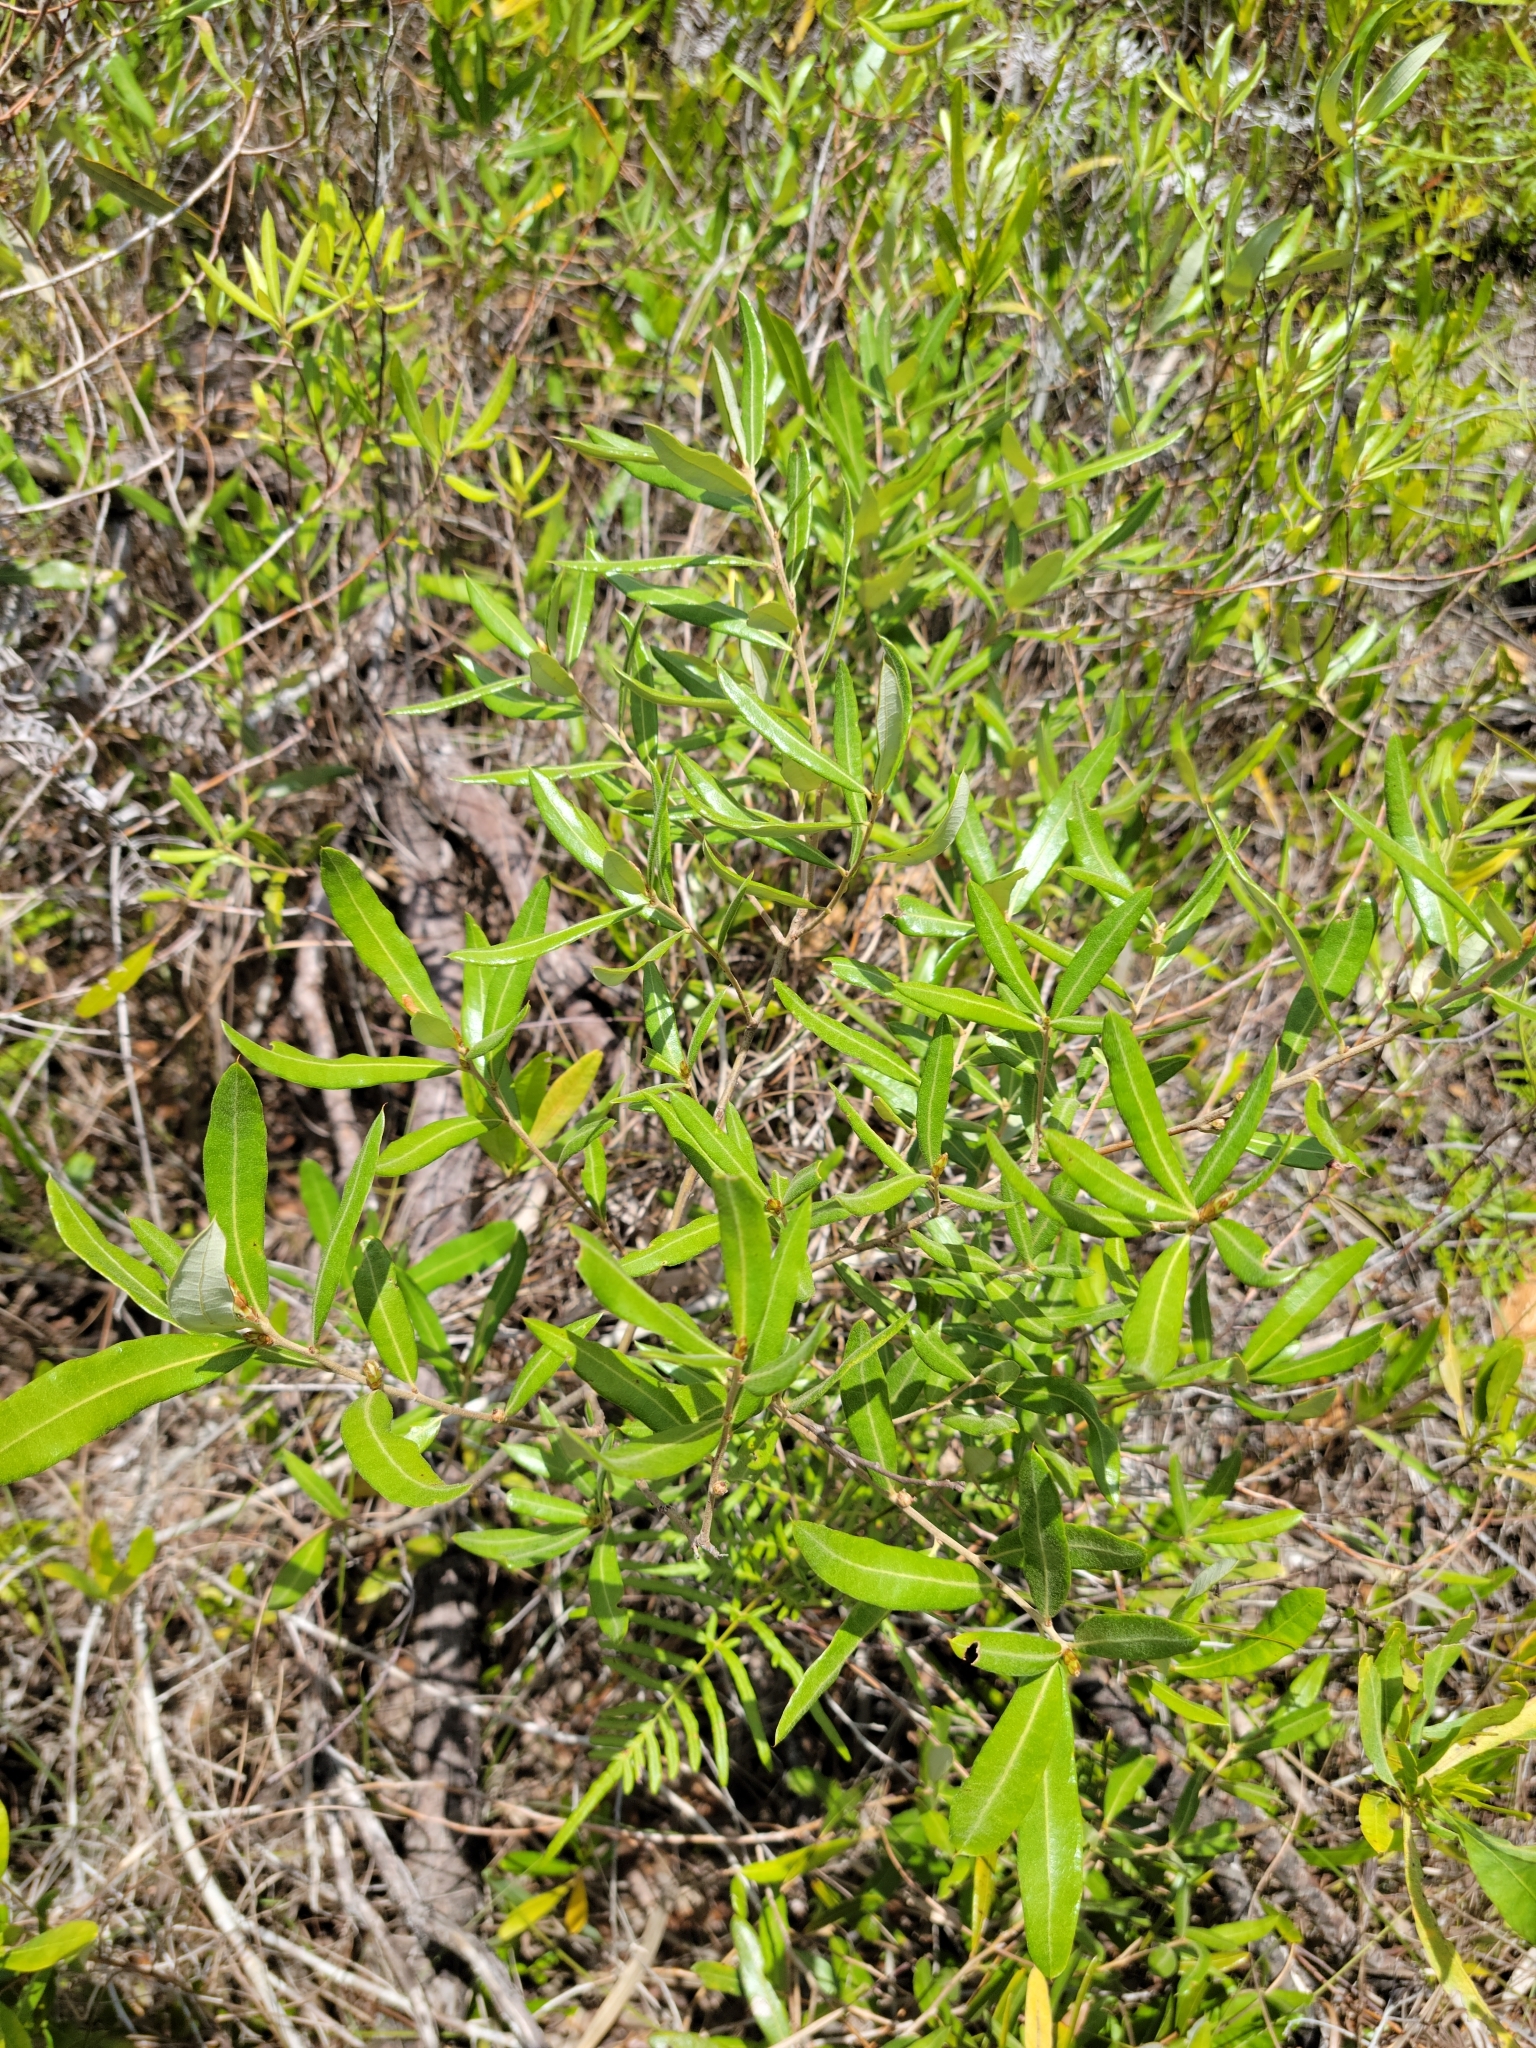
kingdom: Plantae
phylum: Tracheophyta
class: Magnoliopsida
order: Fagales
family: Fagaceae
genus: Quercus
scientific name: Quercus pumila
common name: Runner oak
